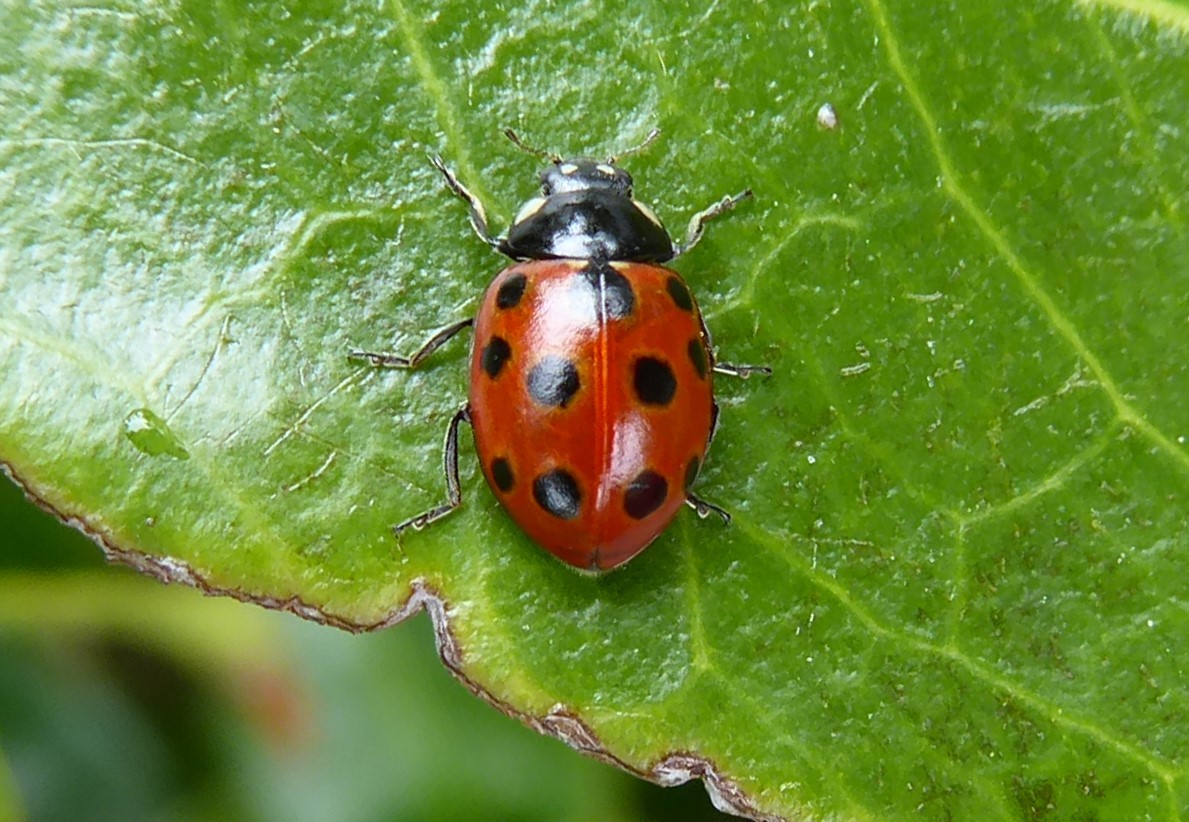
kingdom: Animalia
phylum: Arthropoda
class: Insecta
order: Coleoptera
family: Coccinellidae
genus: Coccinella
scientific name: Coccinella undecimpunctata
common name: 11-spot ladybird
